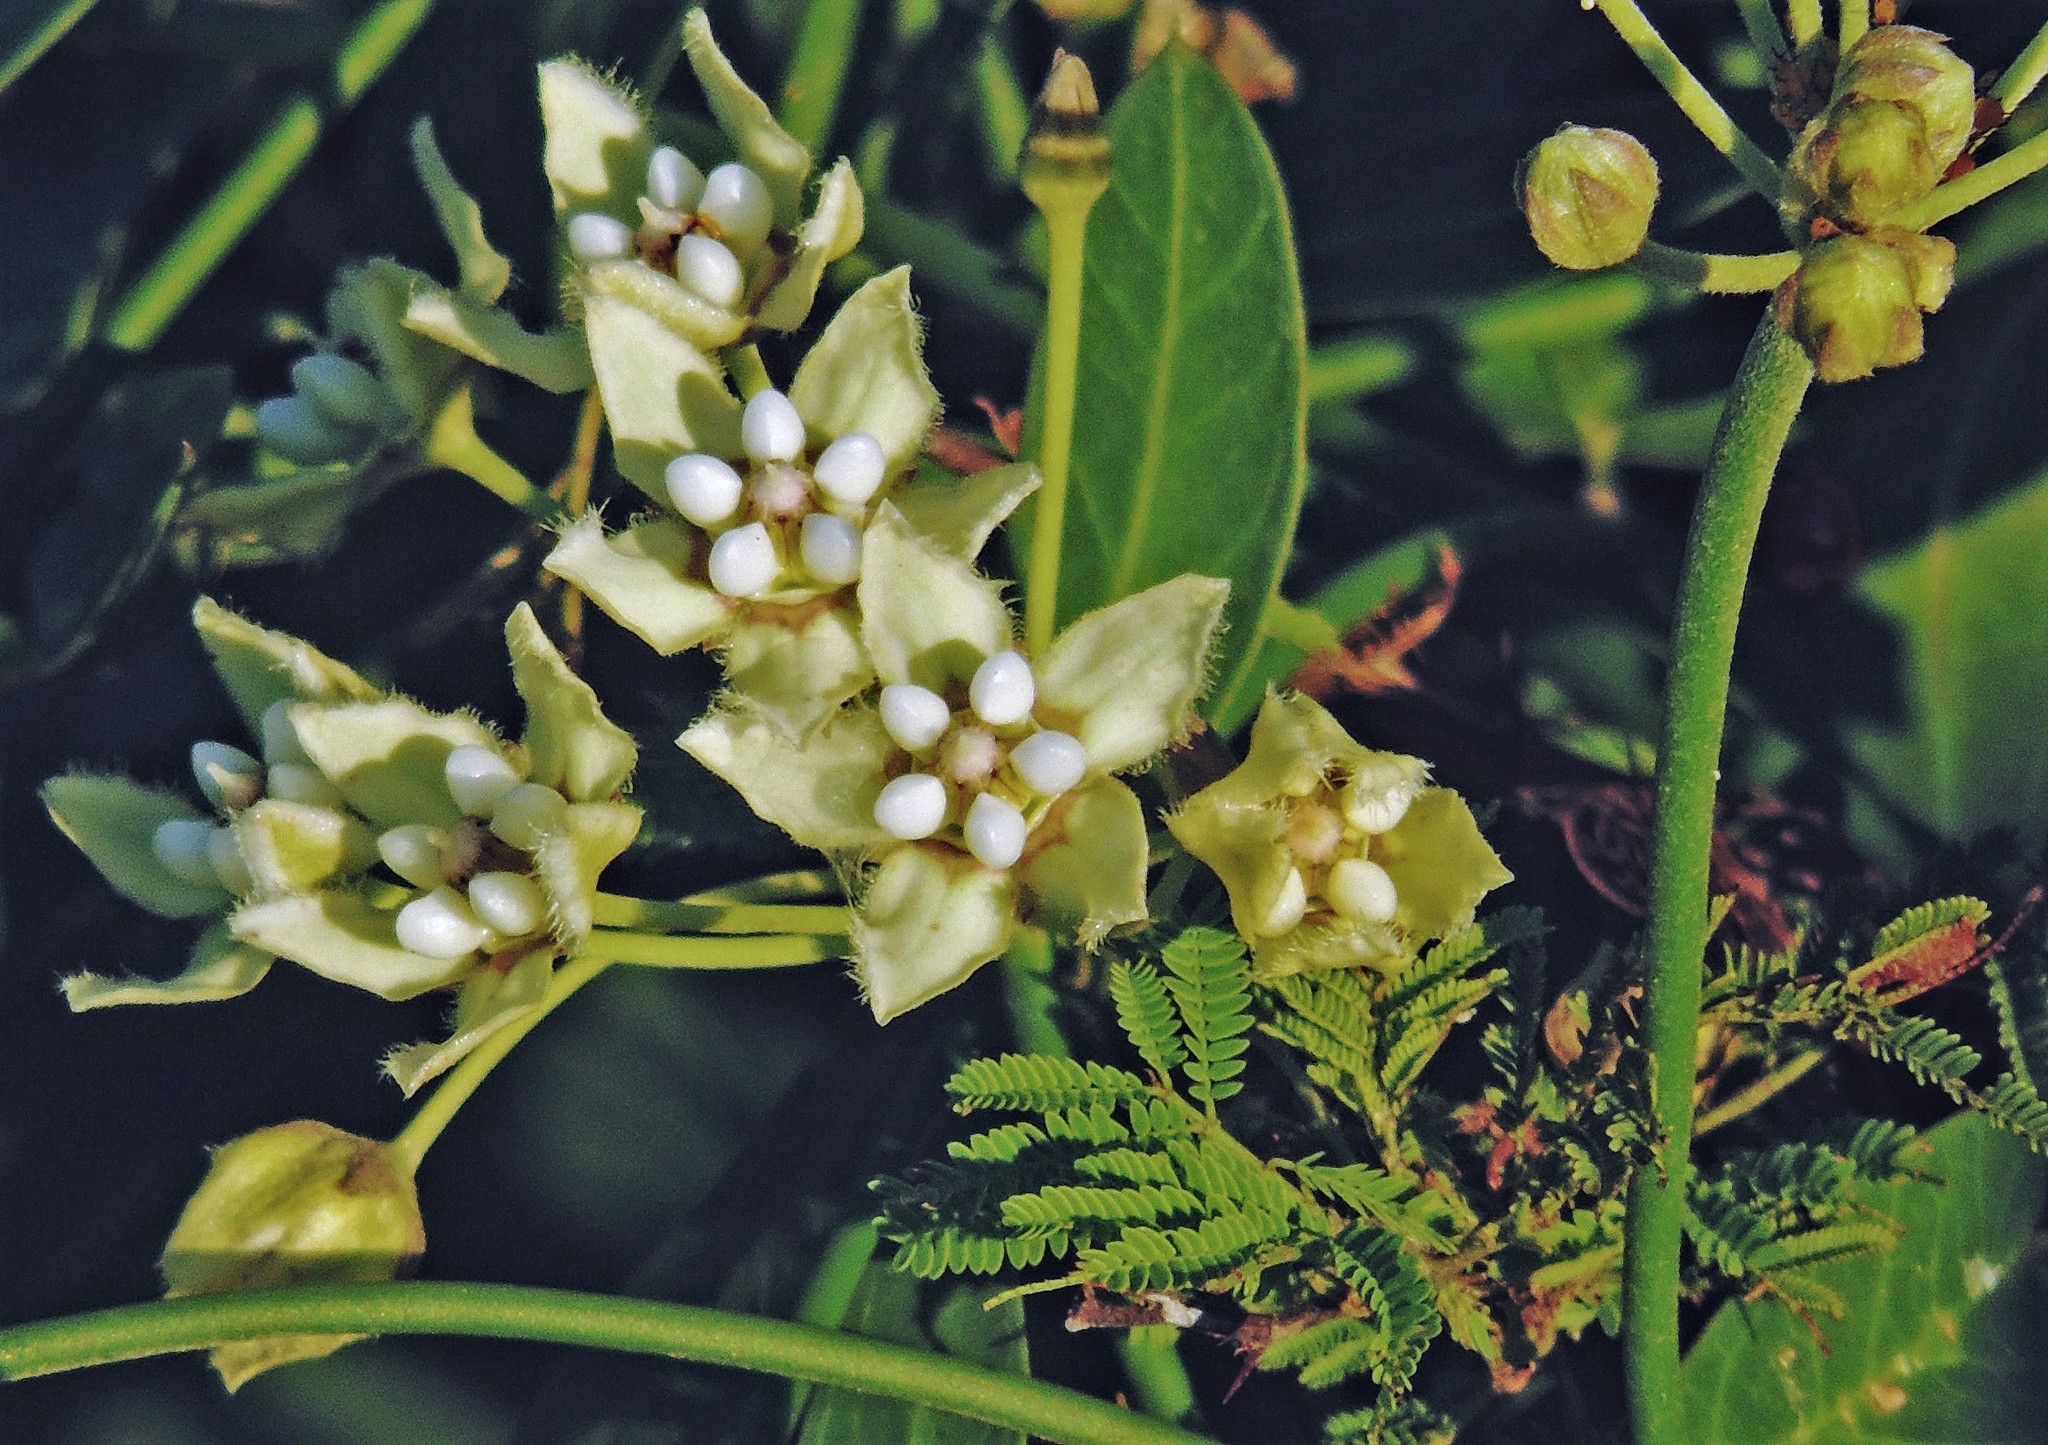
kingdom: Plantae
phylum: Tracheophyta
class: Magnoliopsida
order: Gentianales
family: Apocynaceae
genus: Funastrum
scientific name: Funastrum clausum
